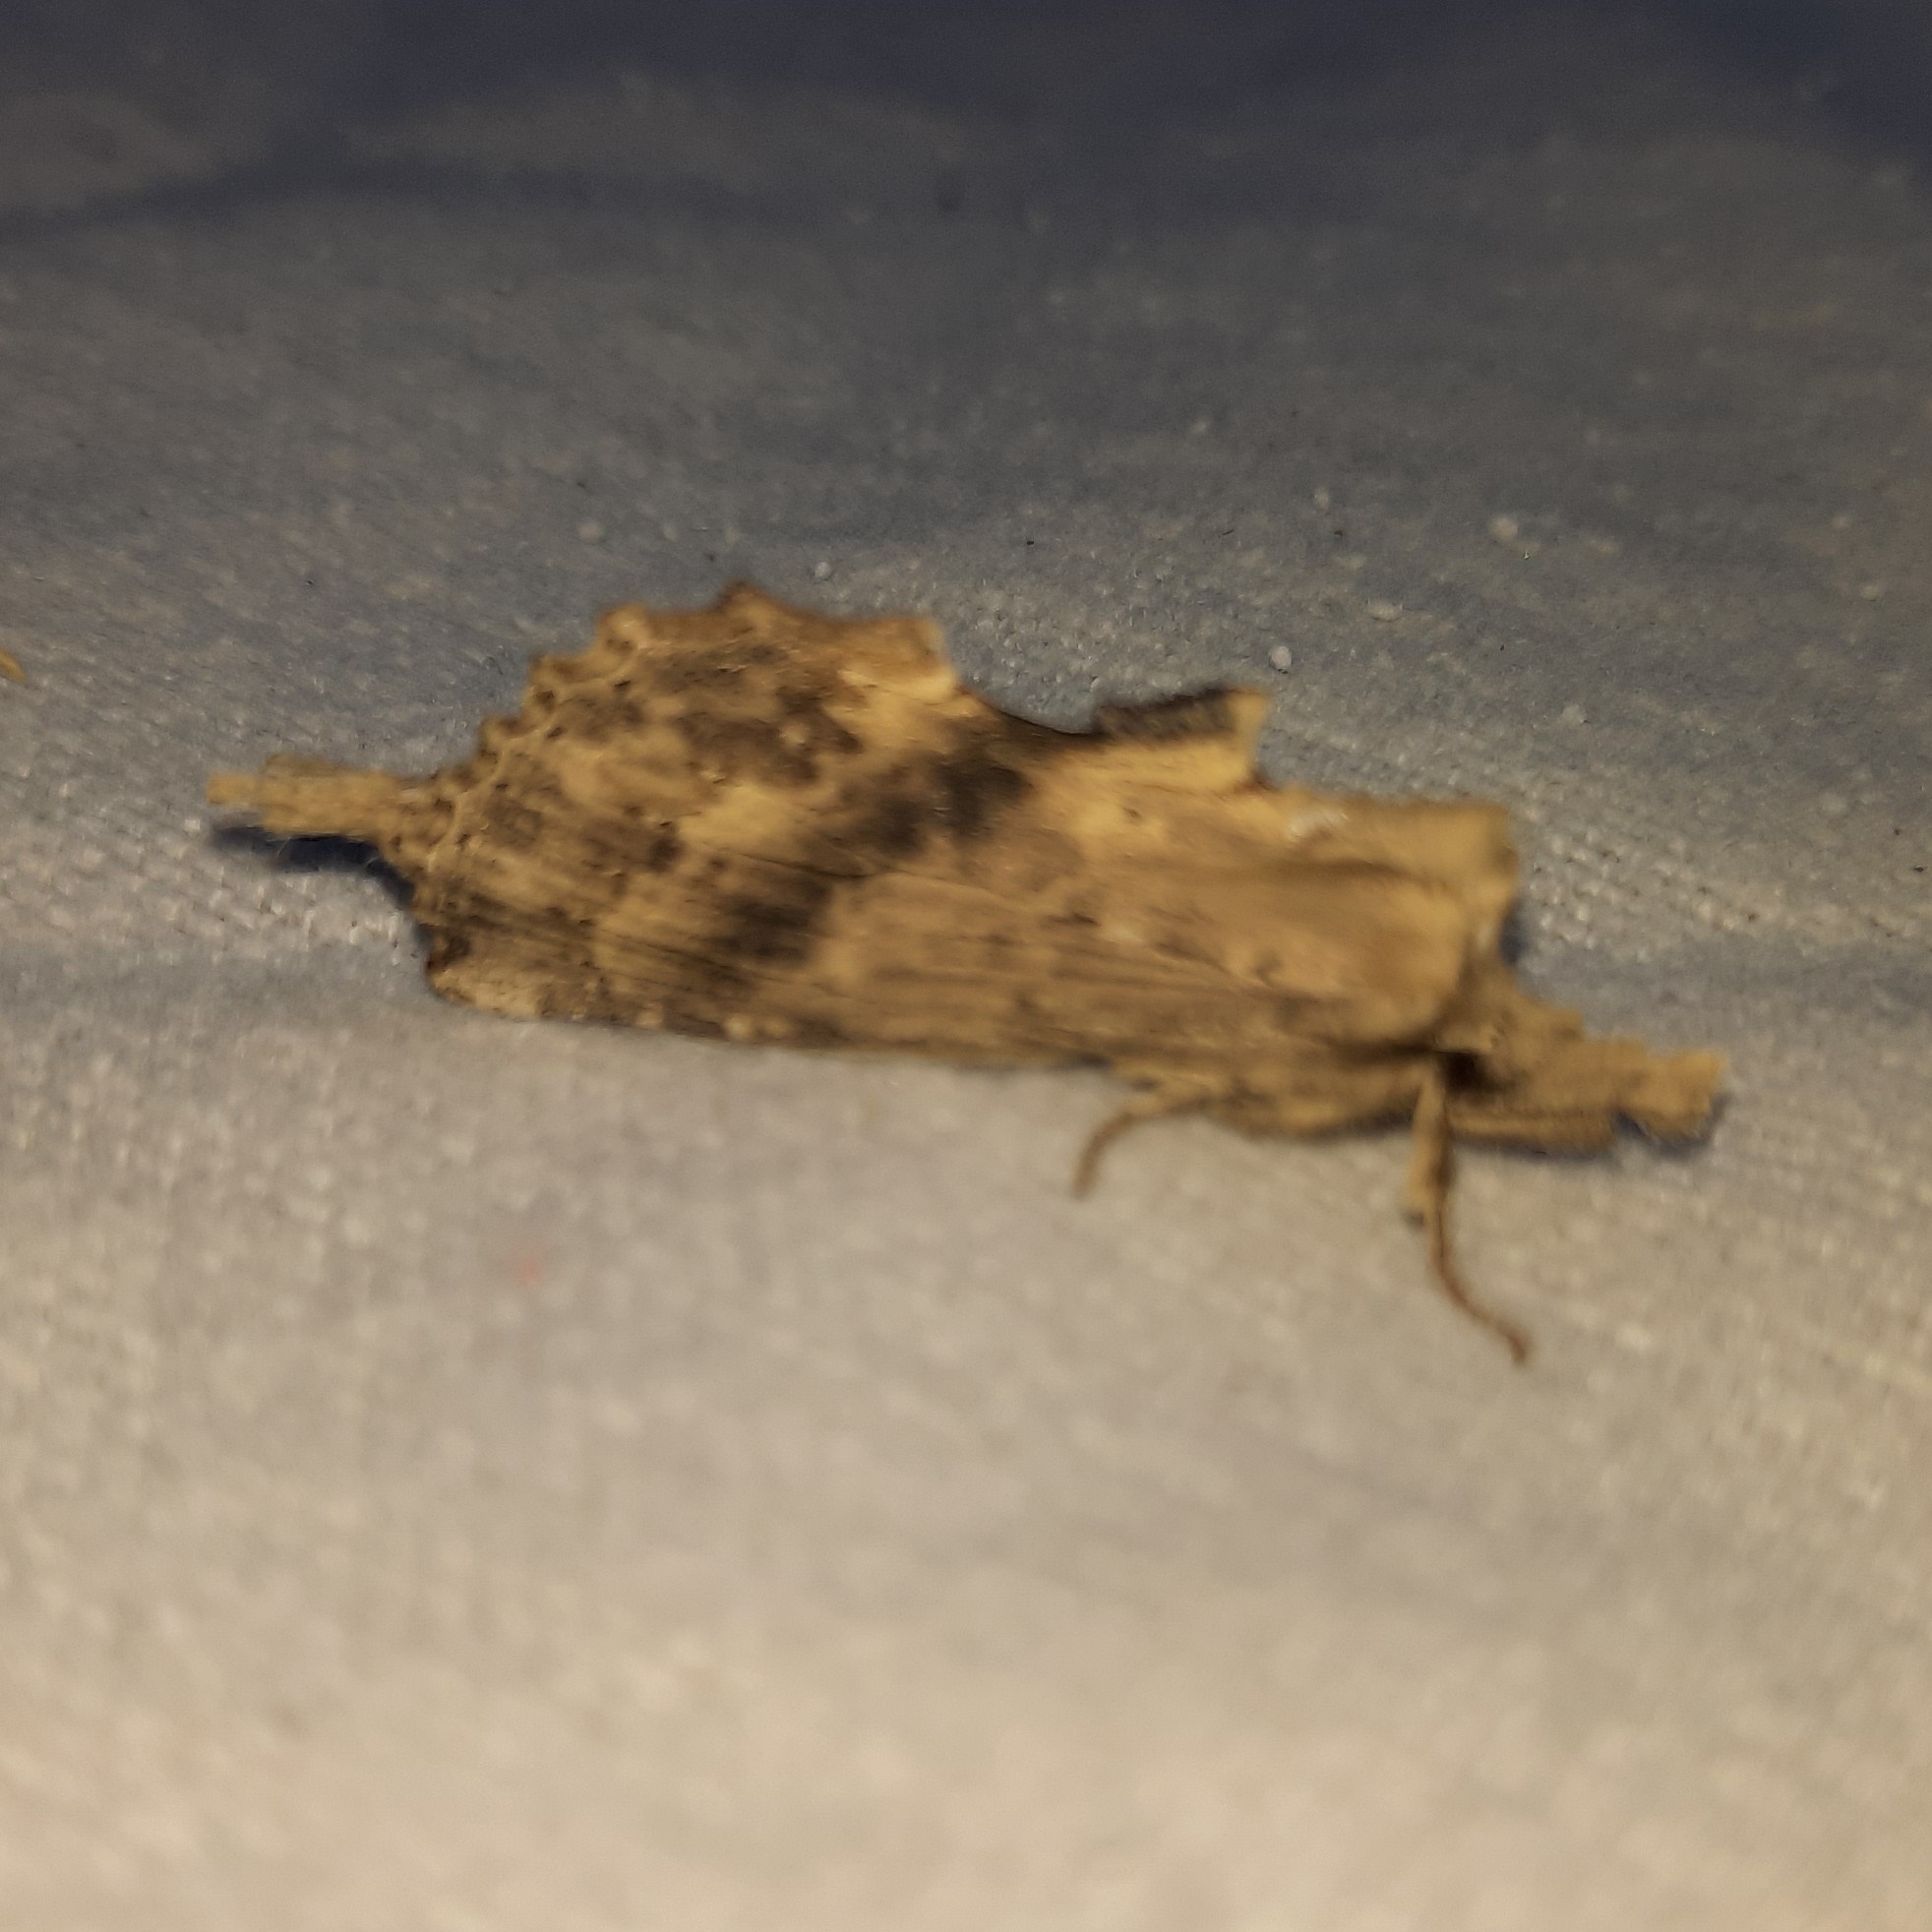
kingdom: Animalia
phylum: Arthropoda
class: Insecta
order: Lepidoptera
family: Notodontidae
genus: Pterostoma
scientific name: Pterostoma palpina
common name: Pale prominent
